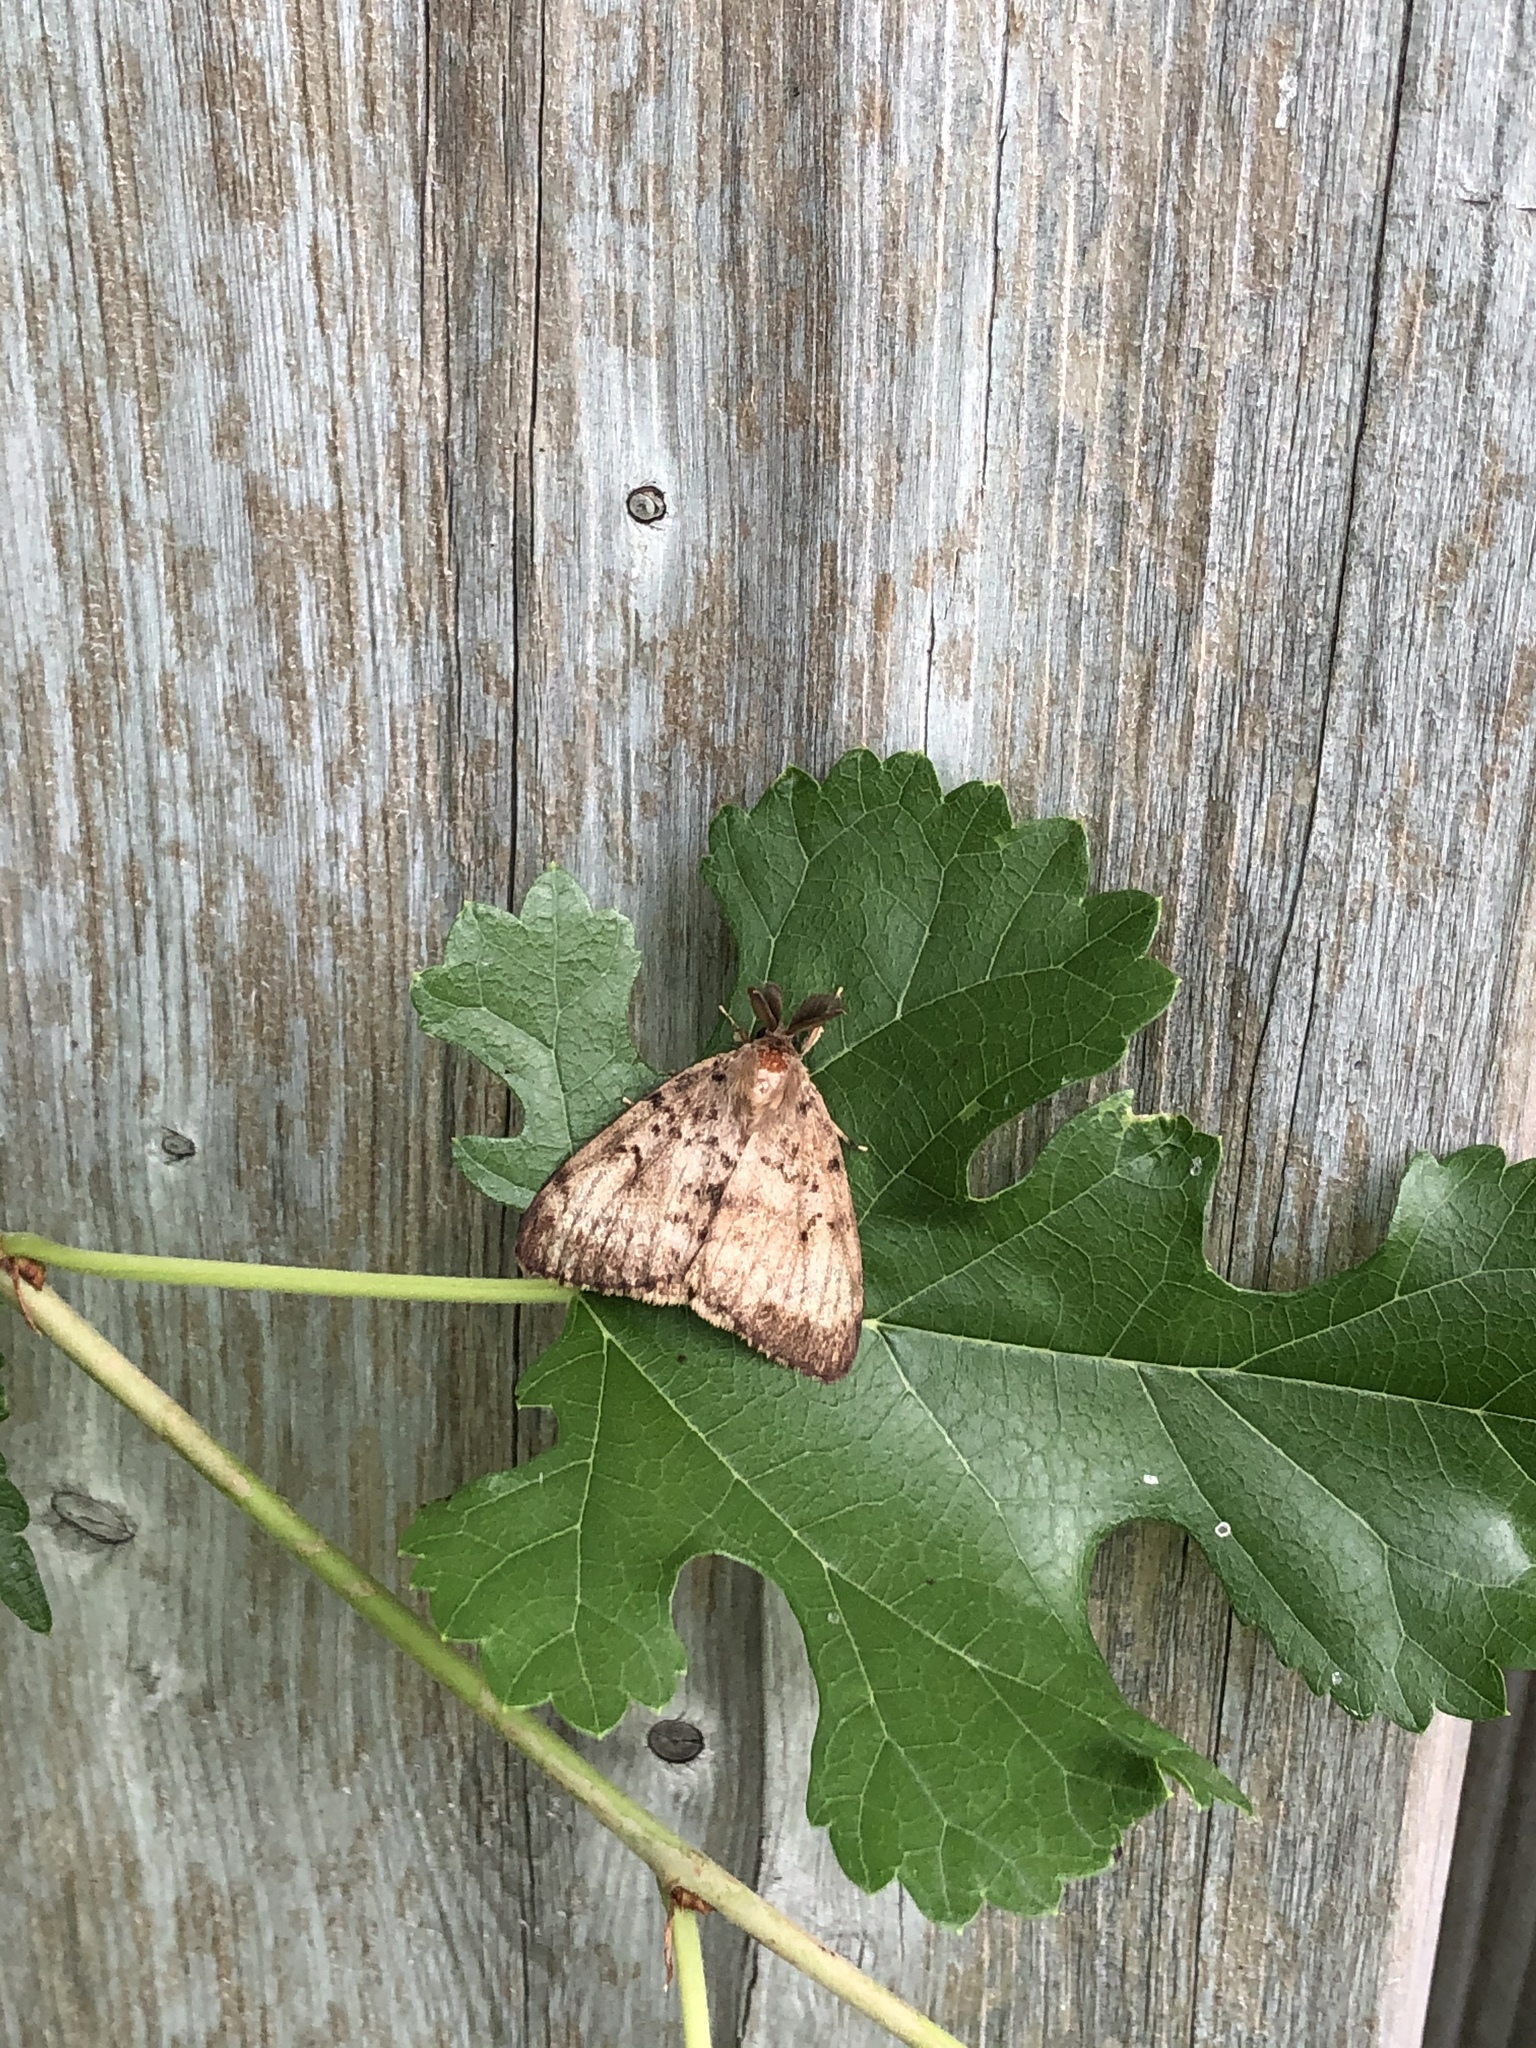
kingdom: Animalia
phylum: Arthropoda
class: Insecta
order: Lepidoptera
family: Erebidae
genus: Lymantria
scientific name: Lymantria dispar
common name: Gypsy moth
